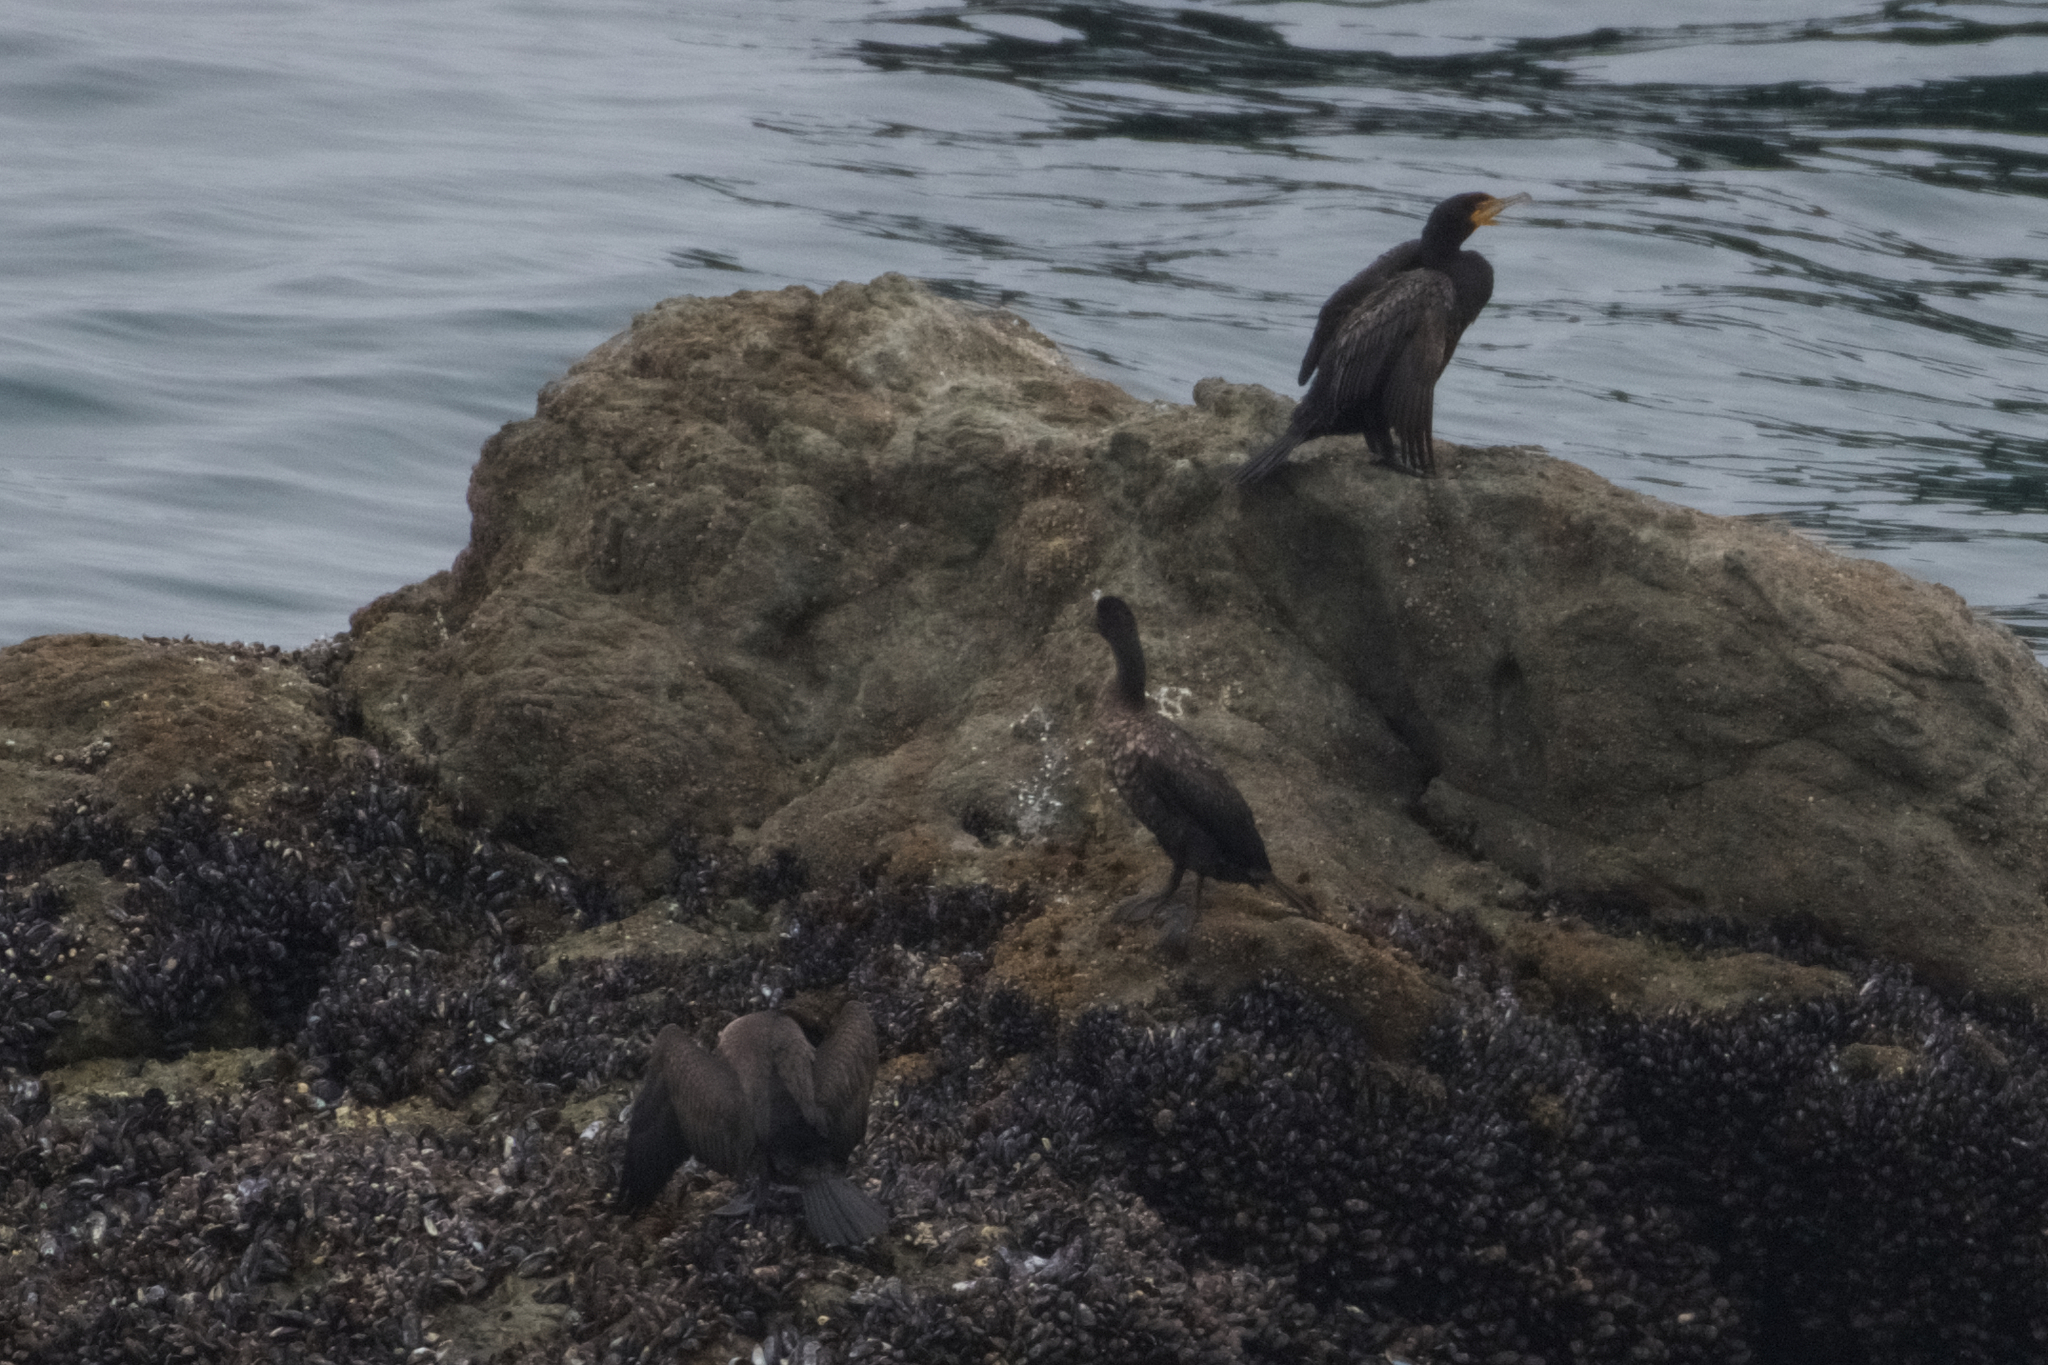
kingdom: Animalia
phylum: Chordata
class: Aves
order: Suliformes
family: Phalacrocoracidae
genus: Phalacrocorax
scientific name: Phalacrocorax auritus
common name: Double-crested cormorant
